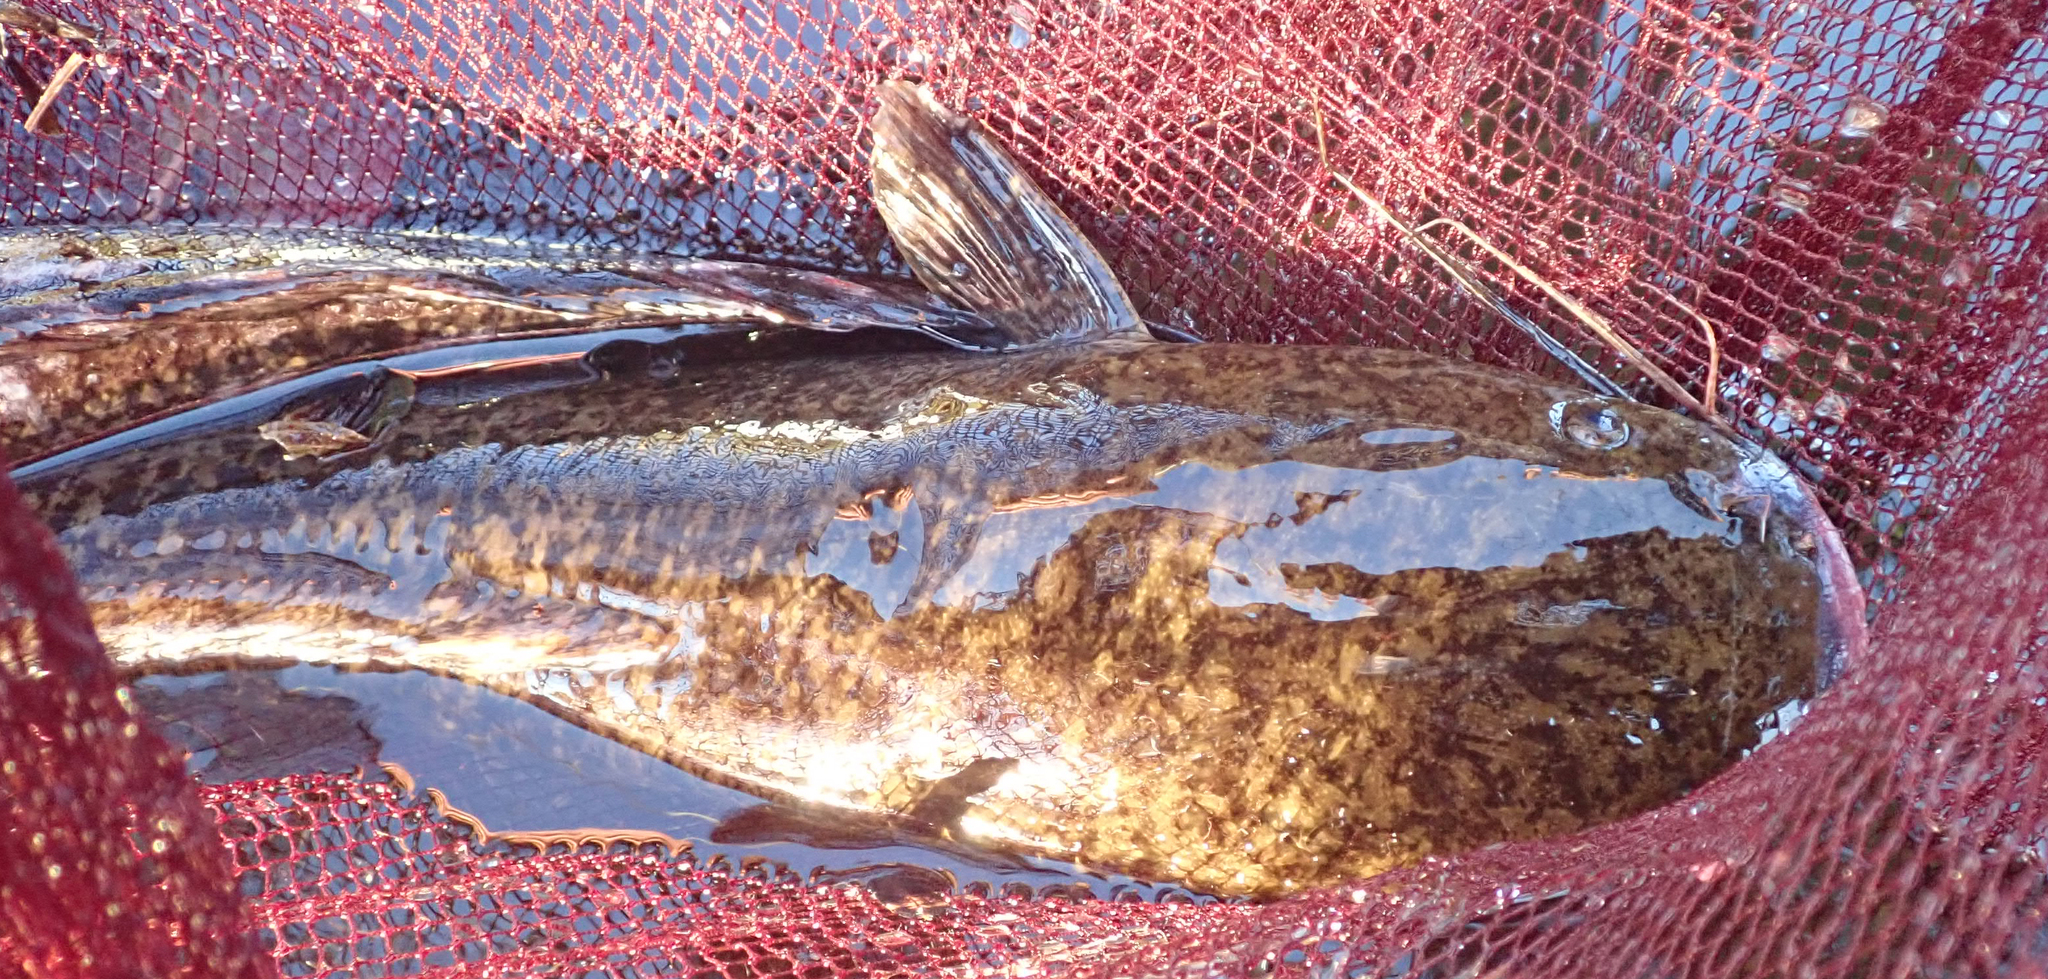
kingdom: Animalia
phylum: Chordata
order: Siluriformes
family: Clariidae
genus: Clarias
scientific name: Clarias gariepinus
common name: African catfish
